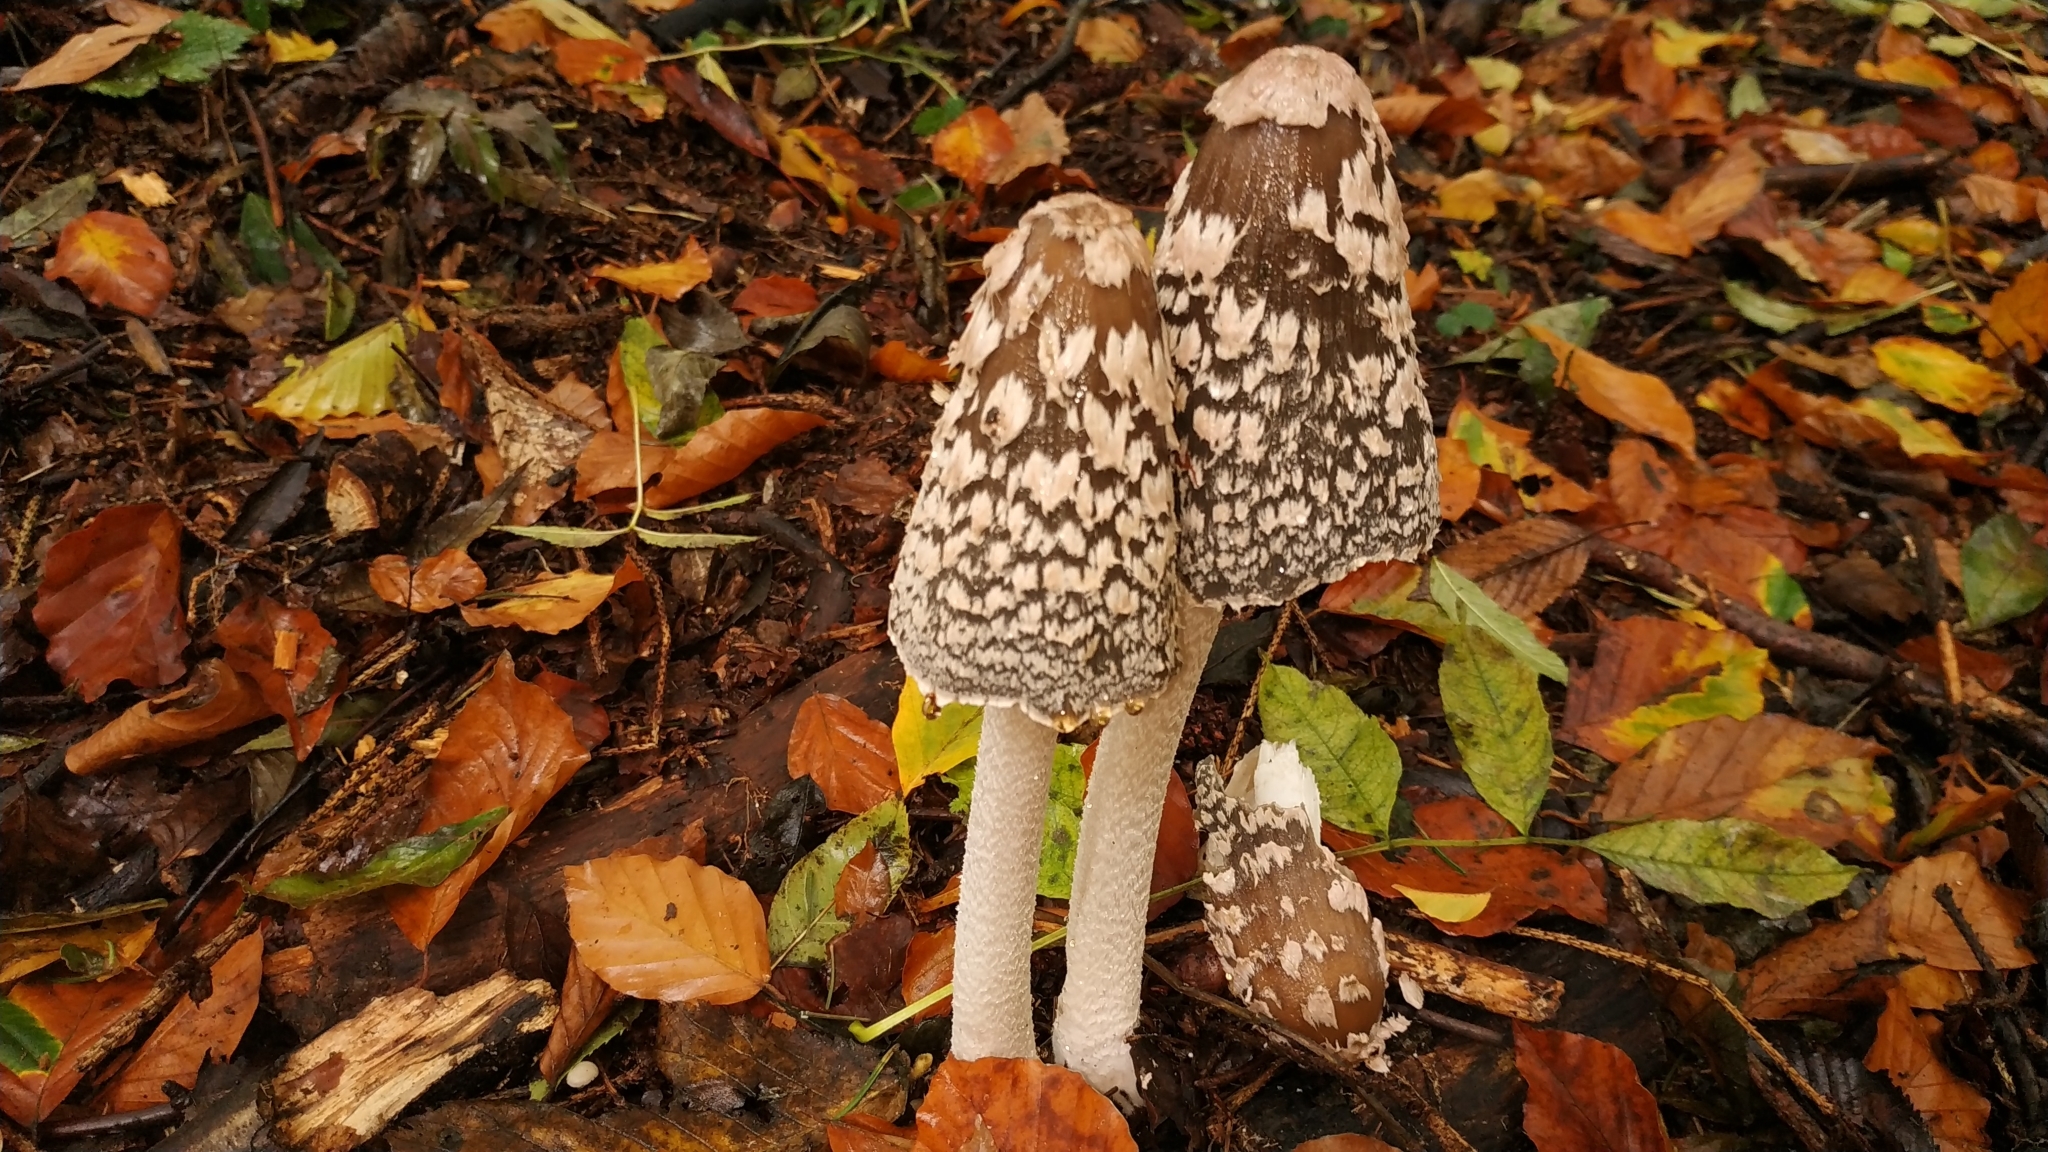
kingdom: Fungi
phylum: Basidiomycota
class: Agaricomycetes
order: Agaricales
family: Psathyrellaceae
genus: Coprinopsis
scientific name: Coprinopsis picacea
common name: Magpie inkcap
